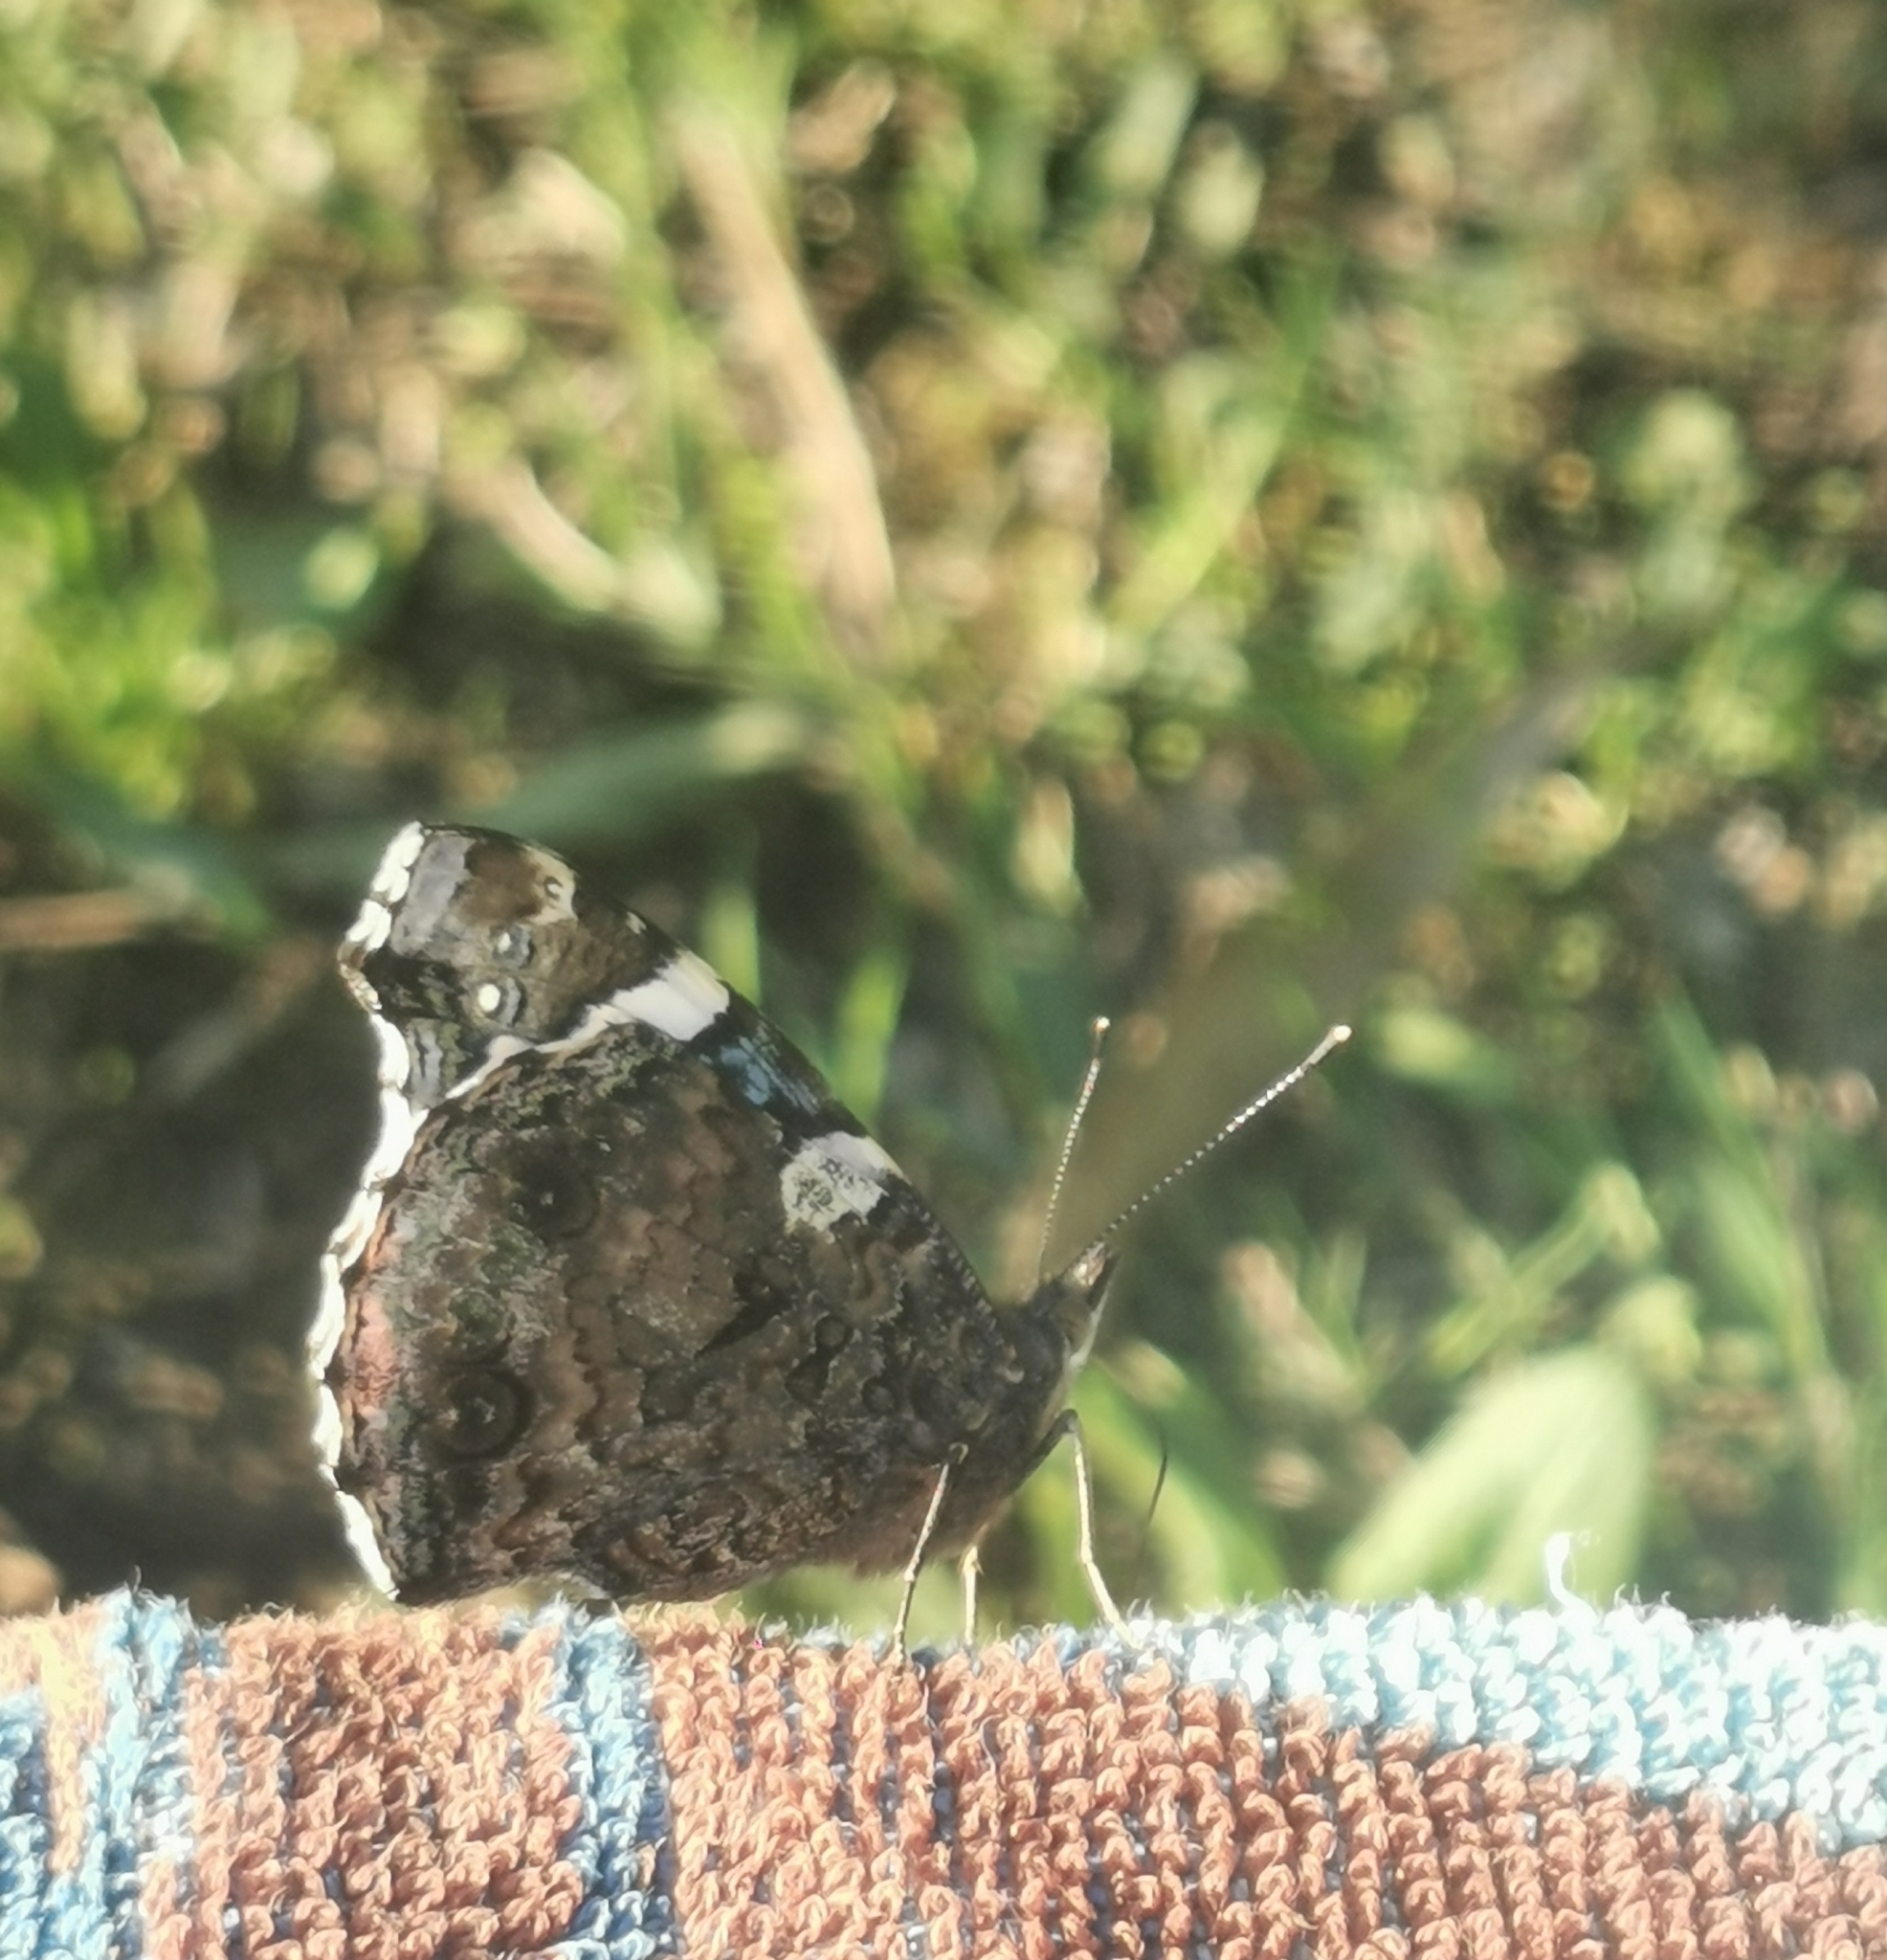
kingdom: Animalia
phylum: Arthropoda
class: Insecta
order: Lepidoptera
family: Nymphalidae
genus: Vanessa
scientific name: Vanessa atalanta
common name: Red admiral
